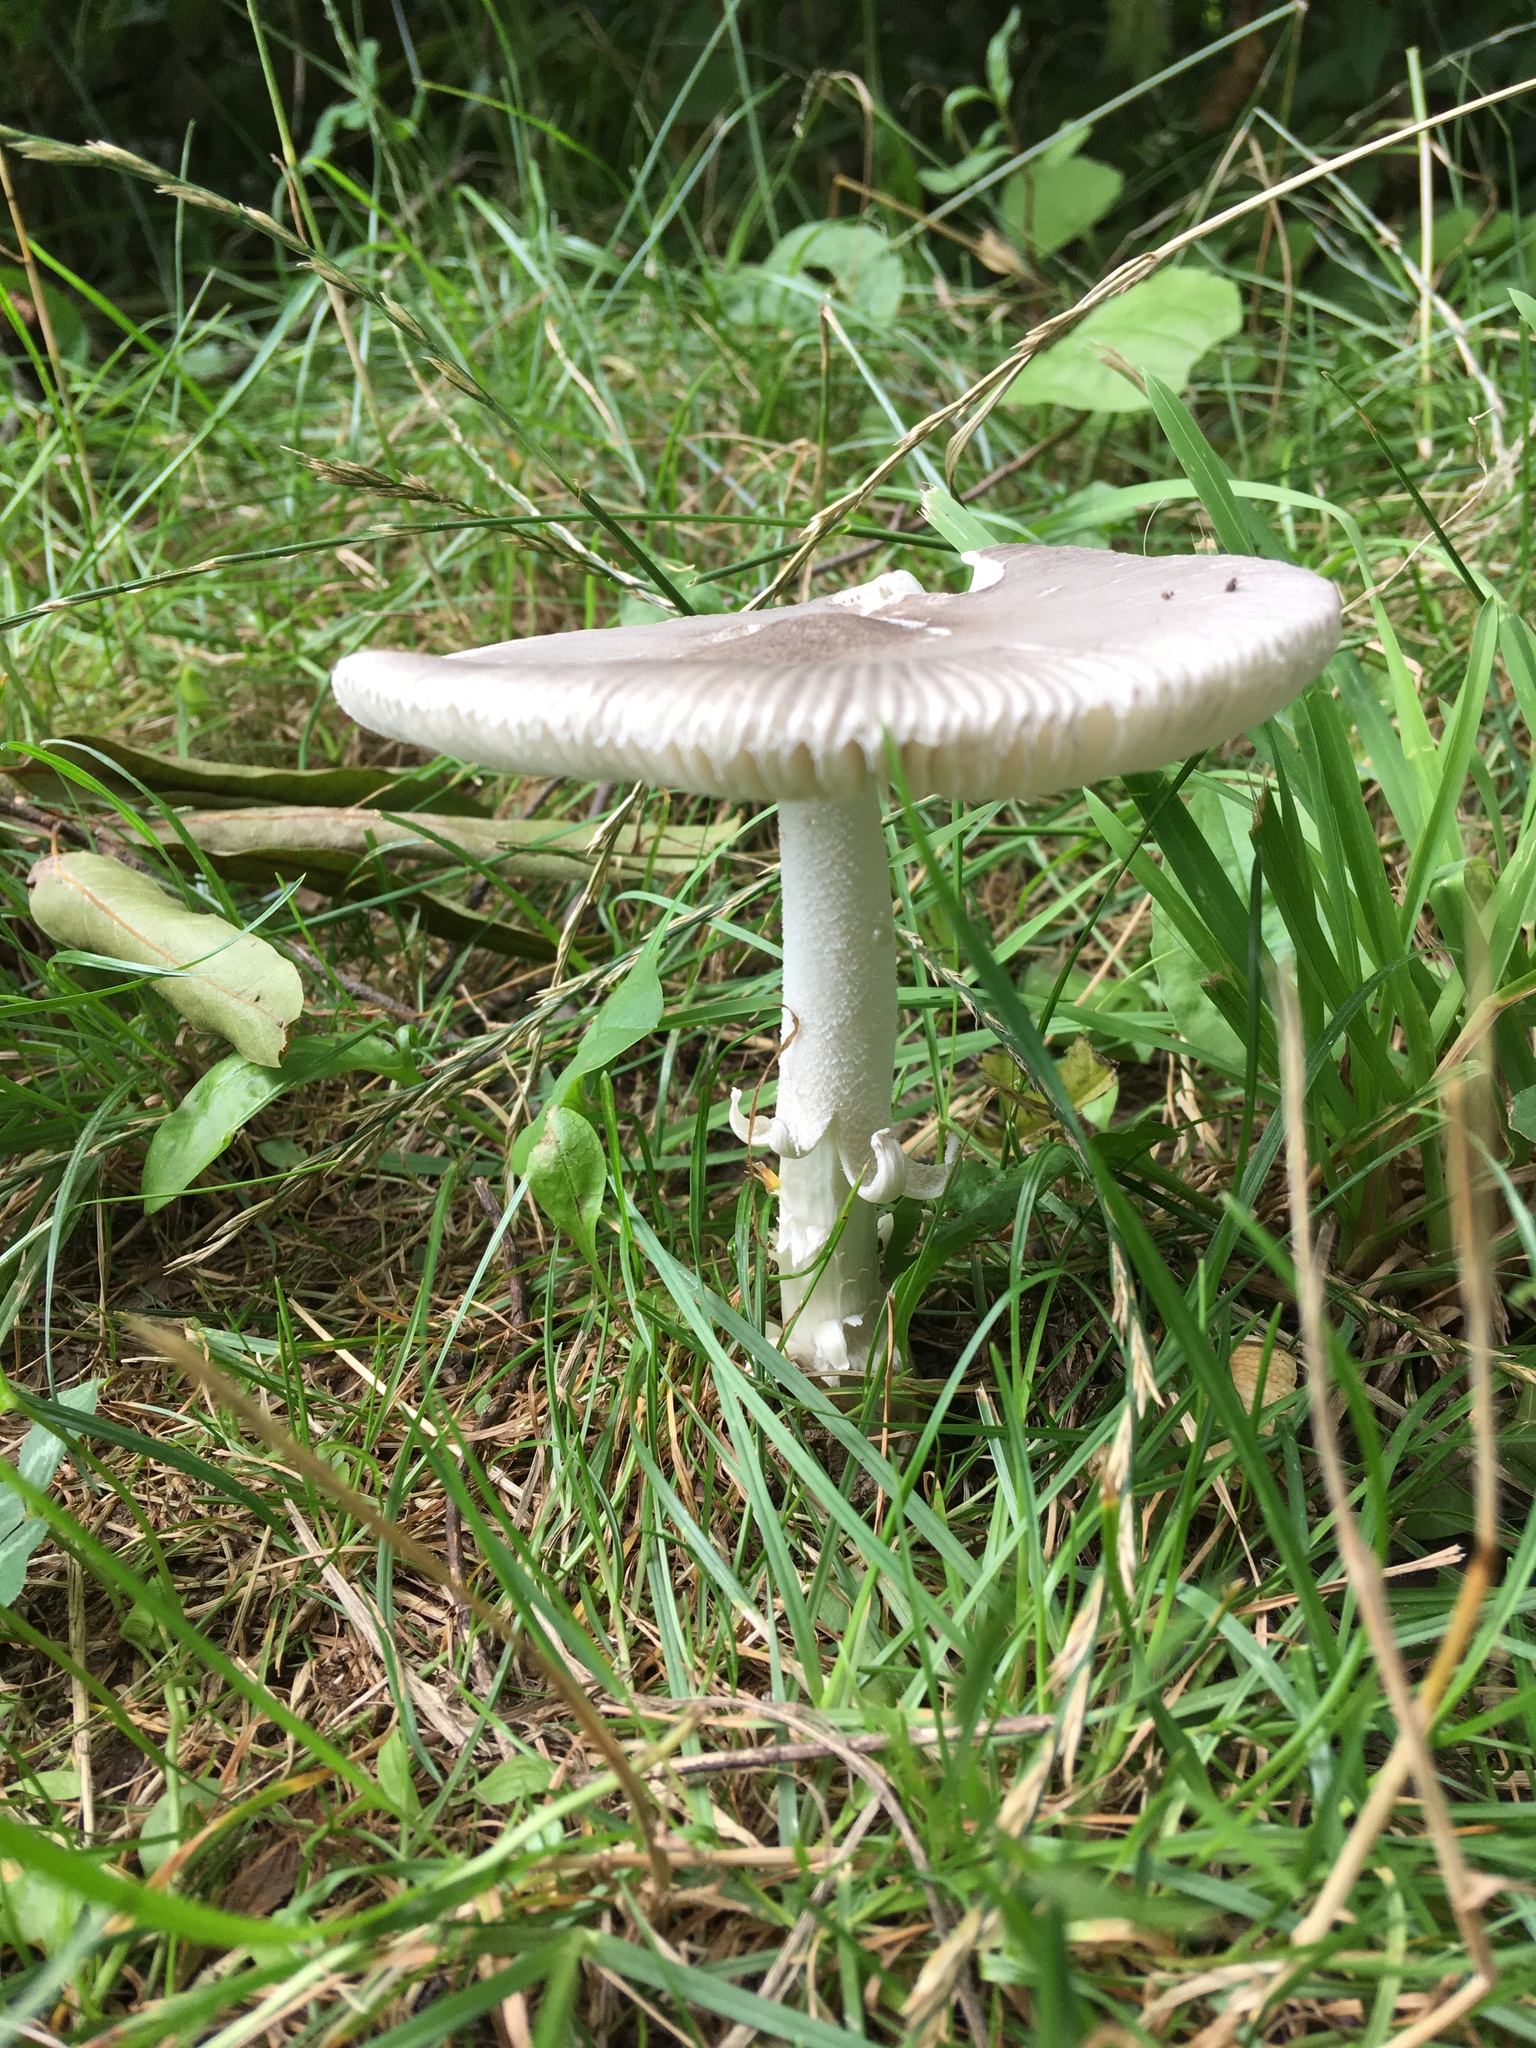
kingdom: Fungi
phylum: Basidiomycota
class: Agaricomycetes
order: Agaricales
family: Amanitaceae
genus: Amanita
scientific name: Amanita vaginata
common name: Grisette
